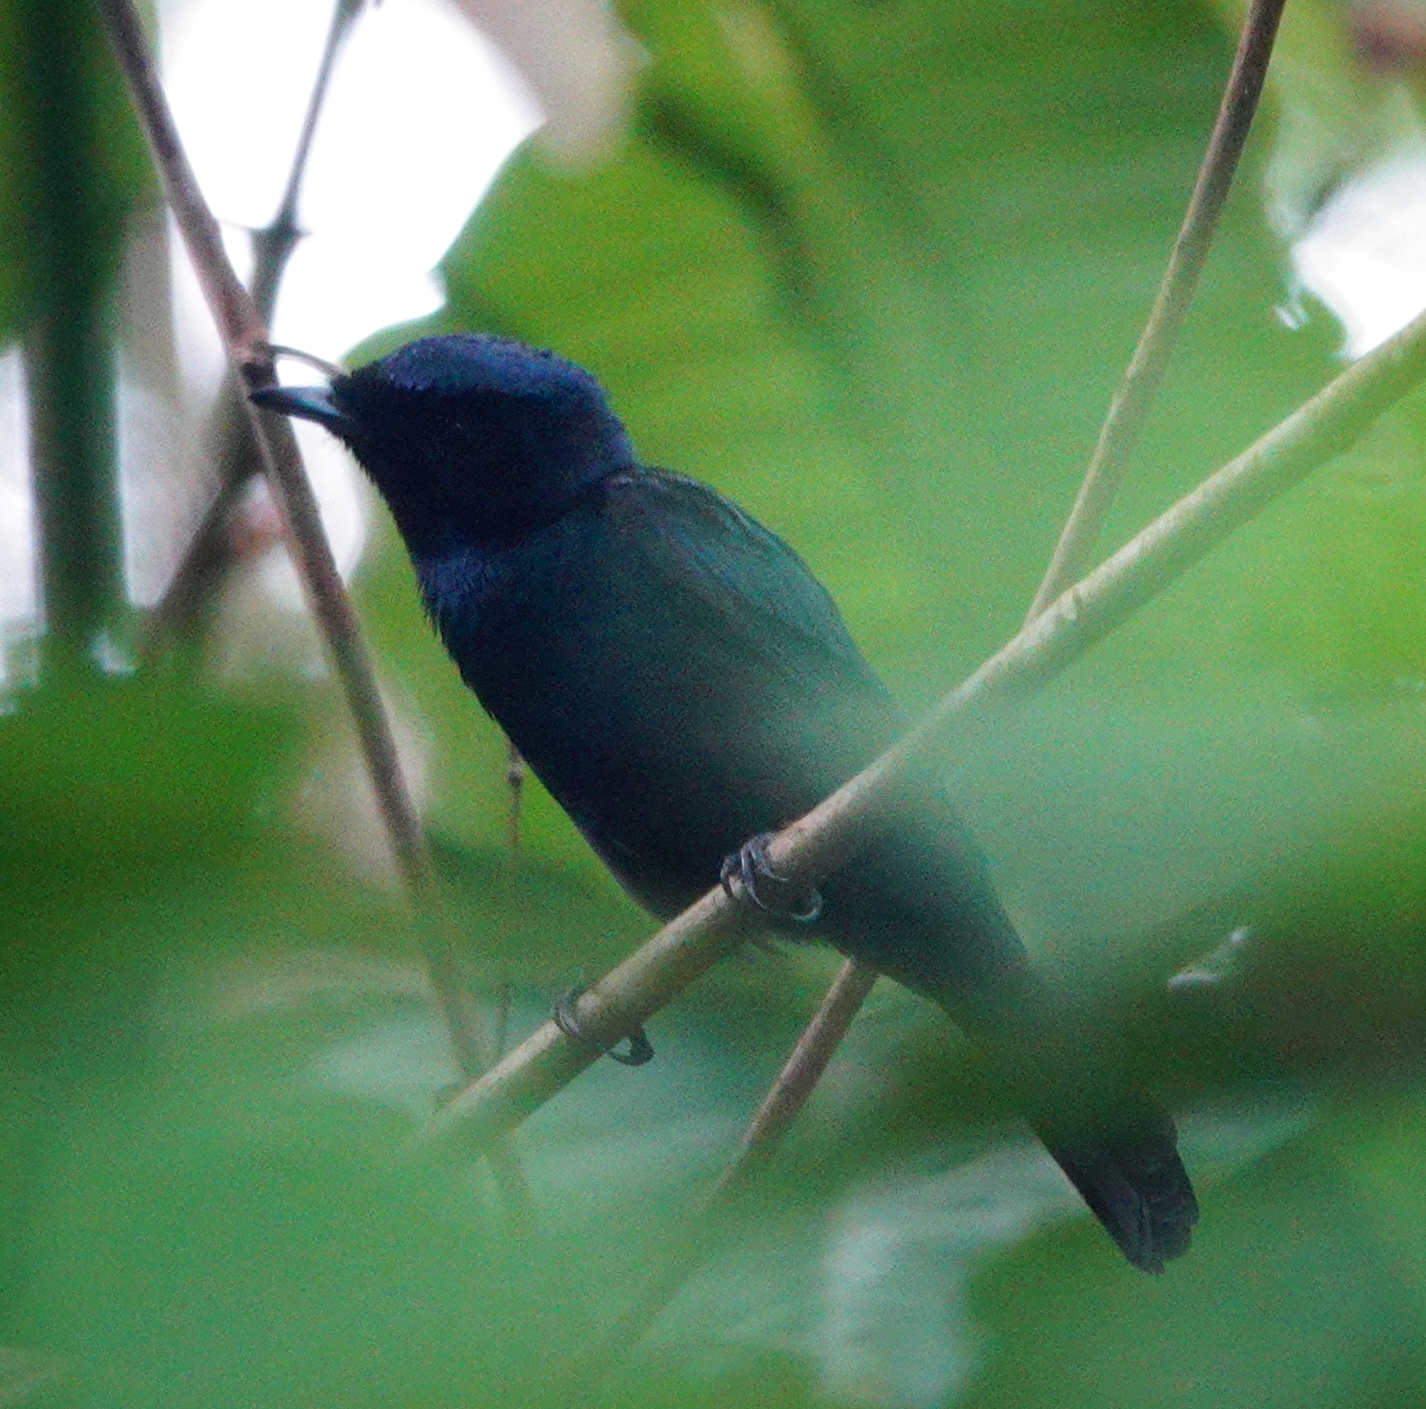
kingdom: Animalia
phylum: Chordata
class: Aves
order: Passeriformes
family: Monarchidae
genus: Myiagra
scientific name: Myiagra alecto
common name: Shining flycatcher
